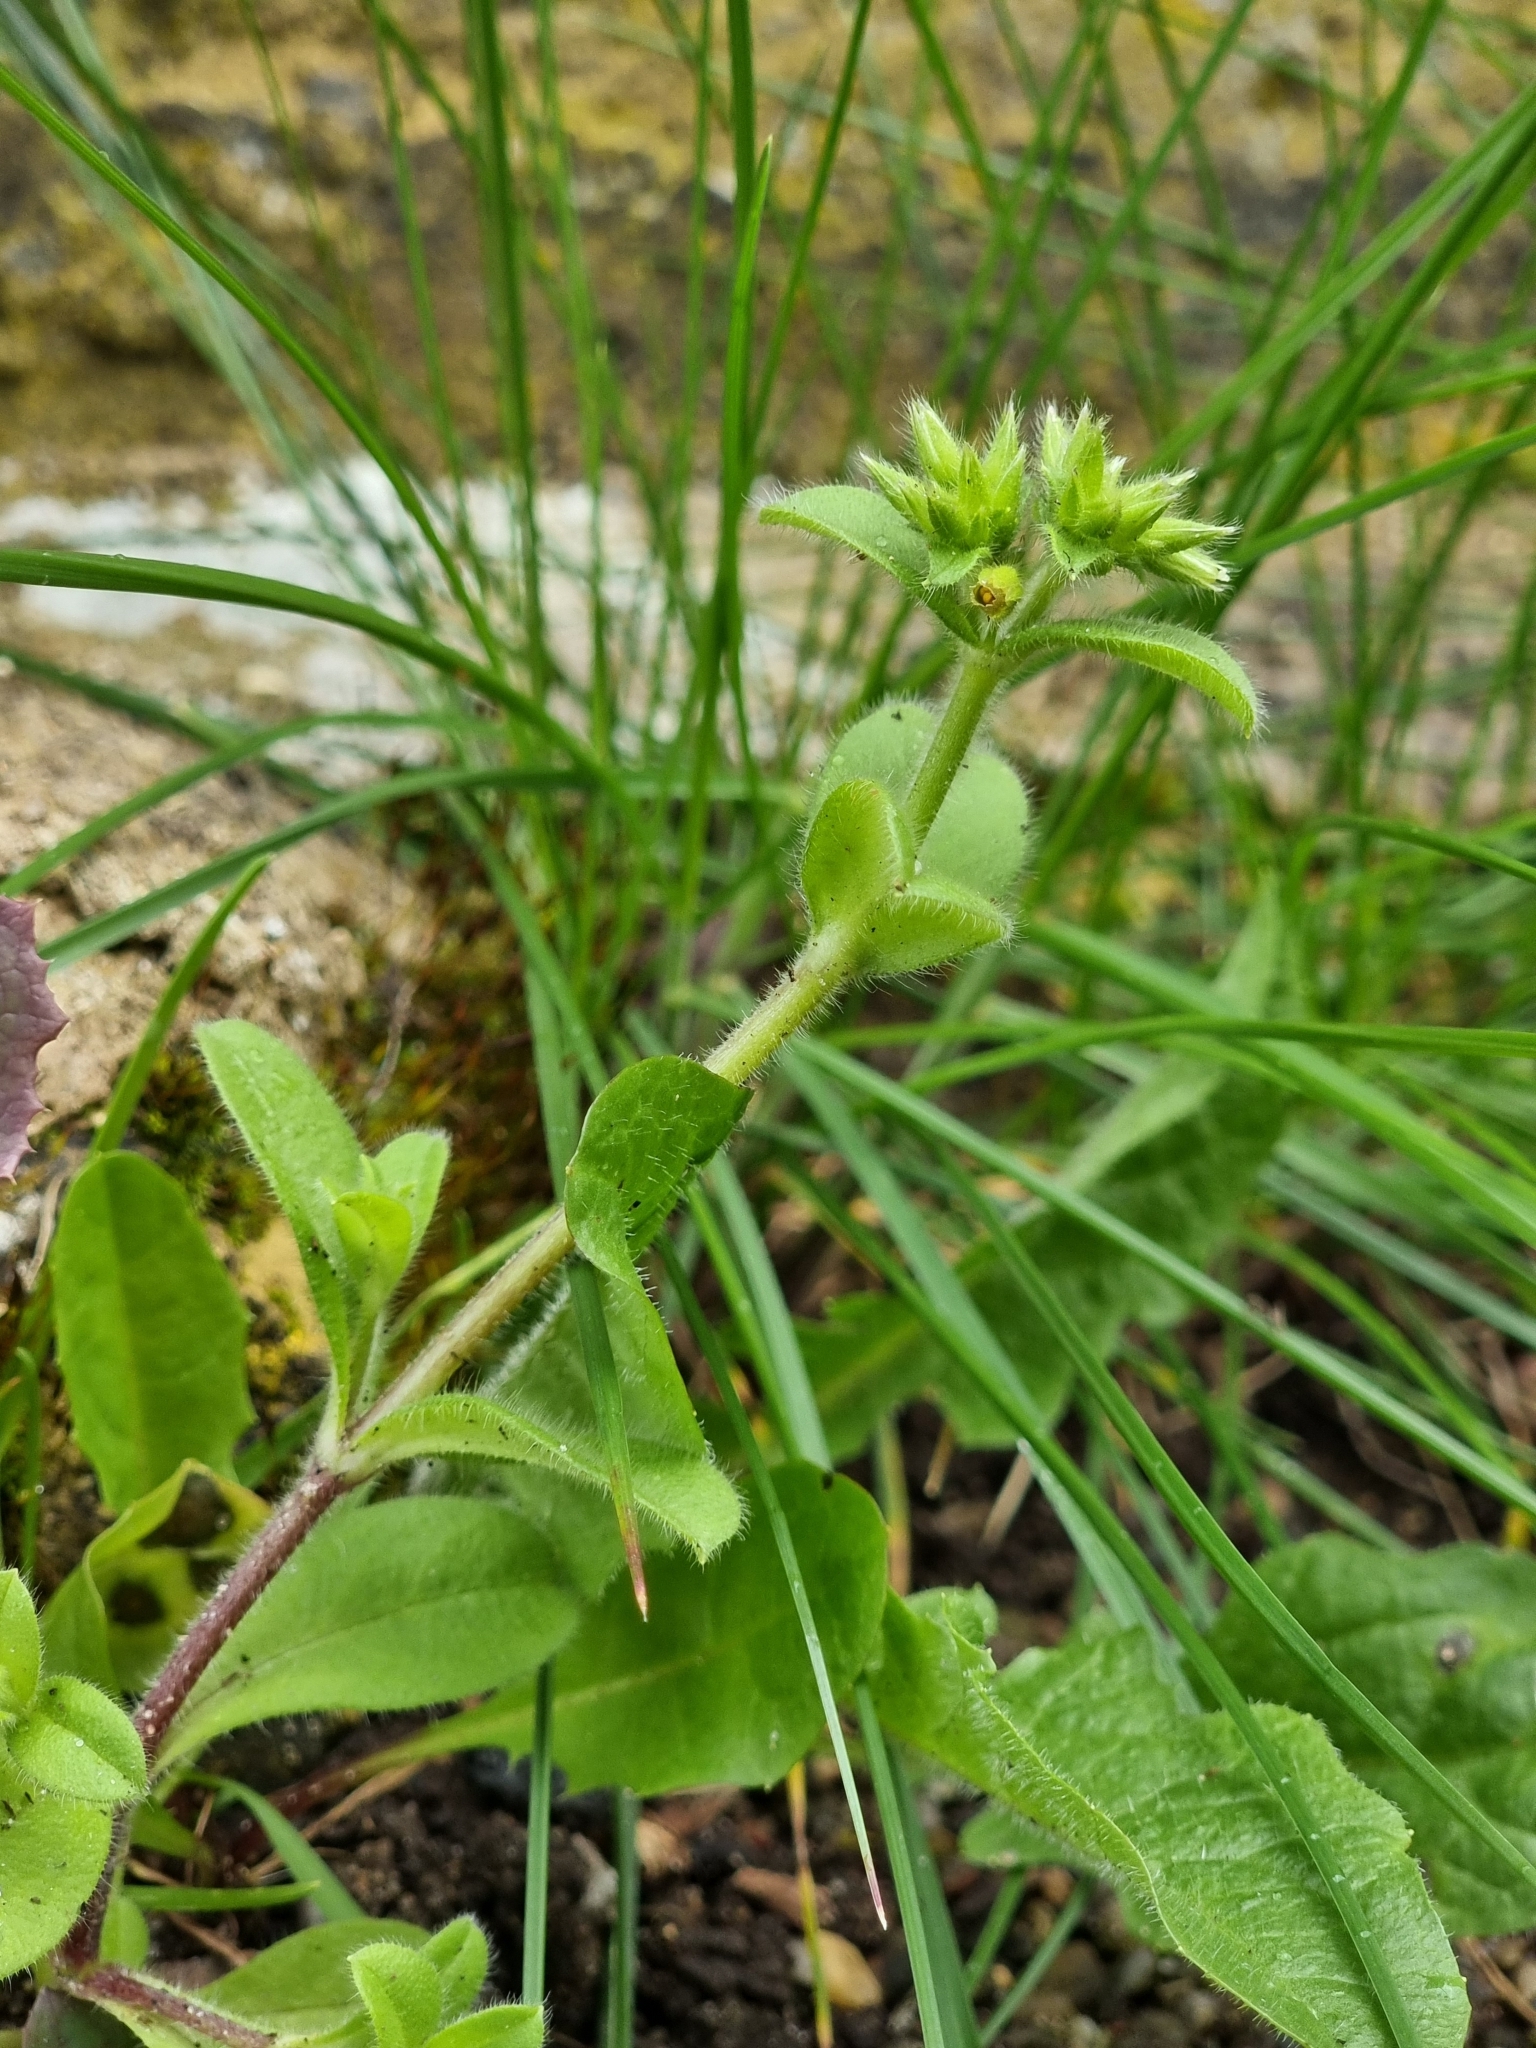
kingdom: Plantae
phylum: Tracheophyta
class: Magnoliopsida
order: Caryophyllales
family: Caryophyllaceae
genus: Cerastium
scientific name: Cerastium glomeratum
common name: Sticky chickweed
